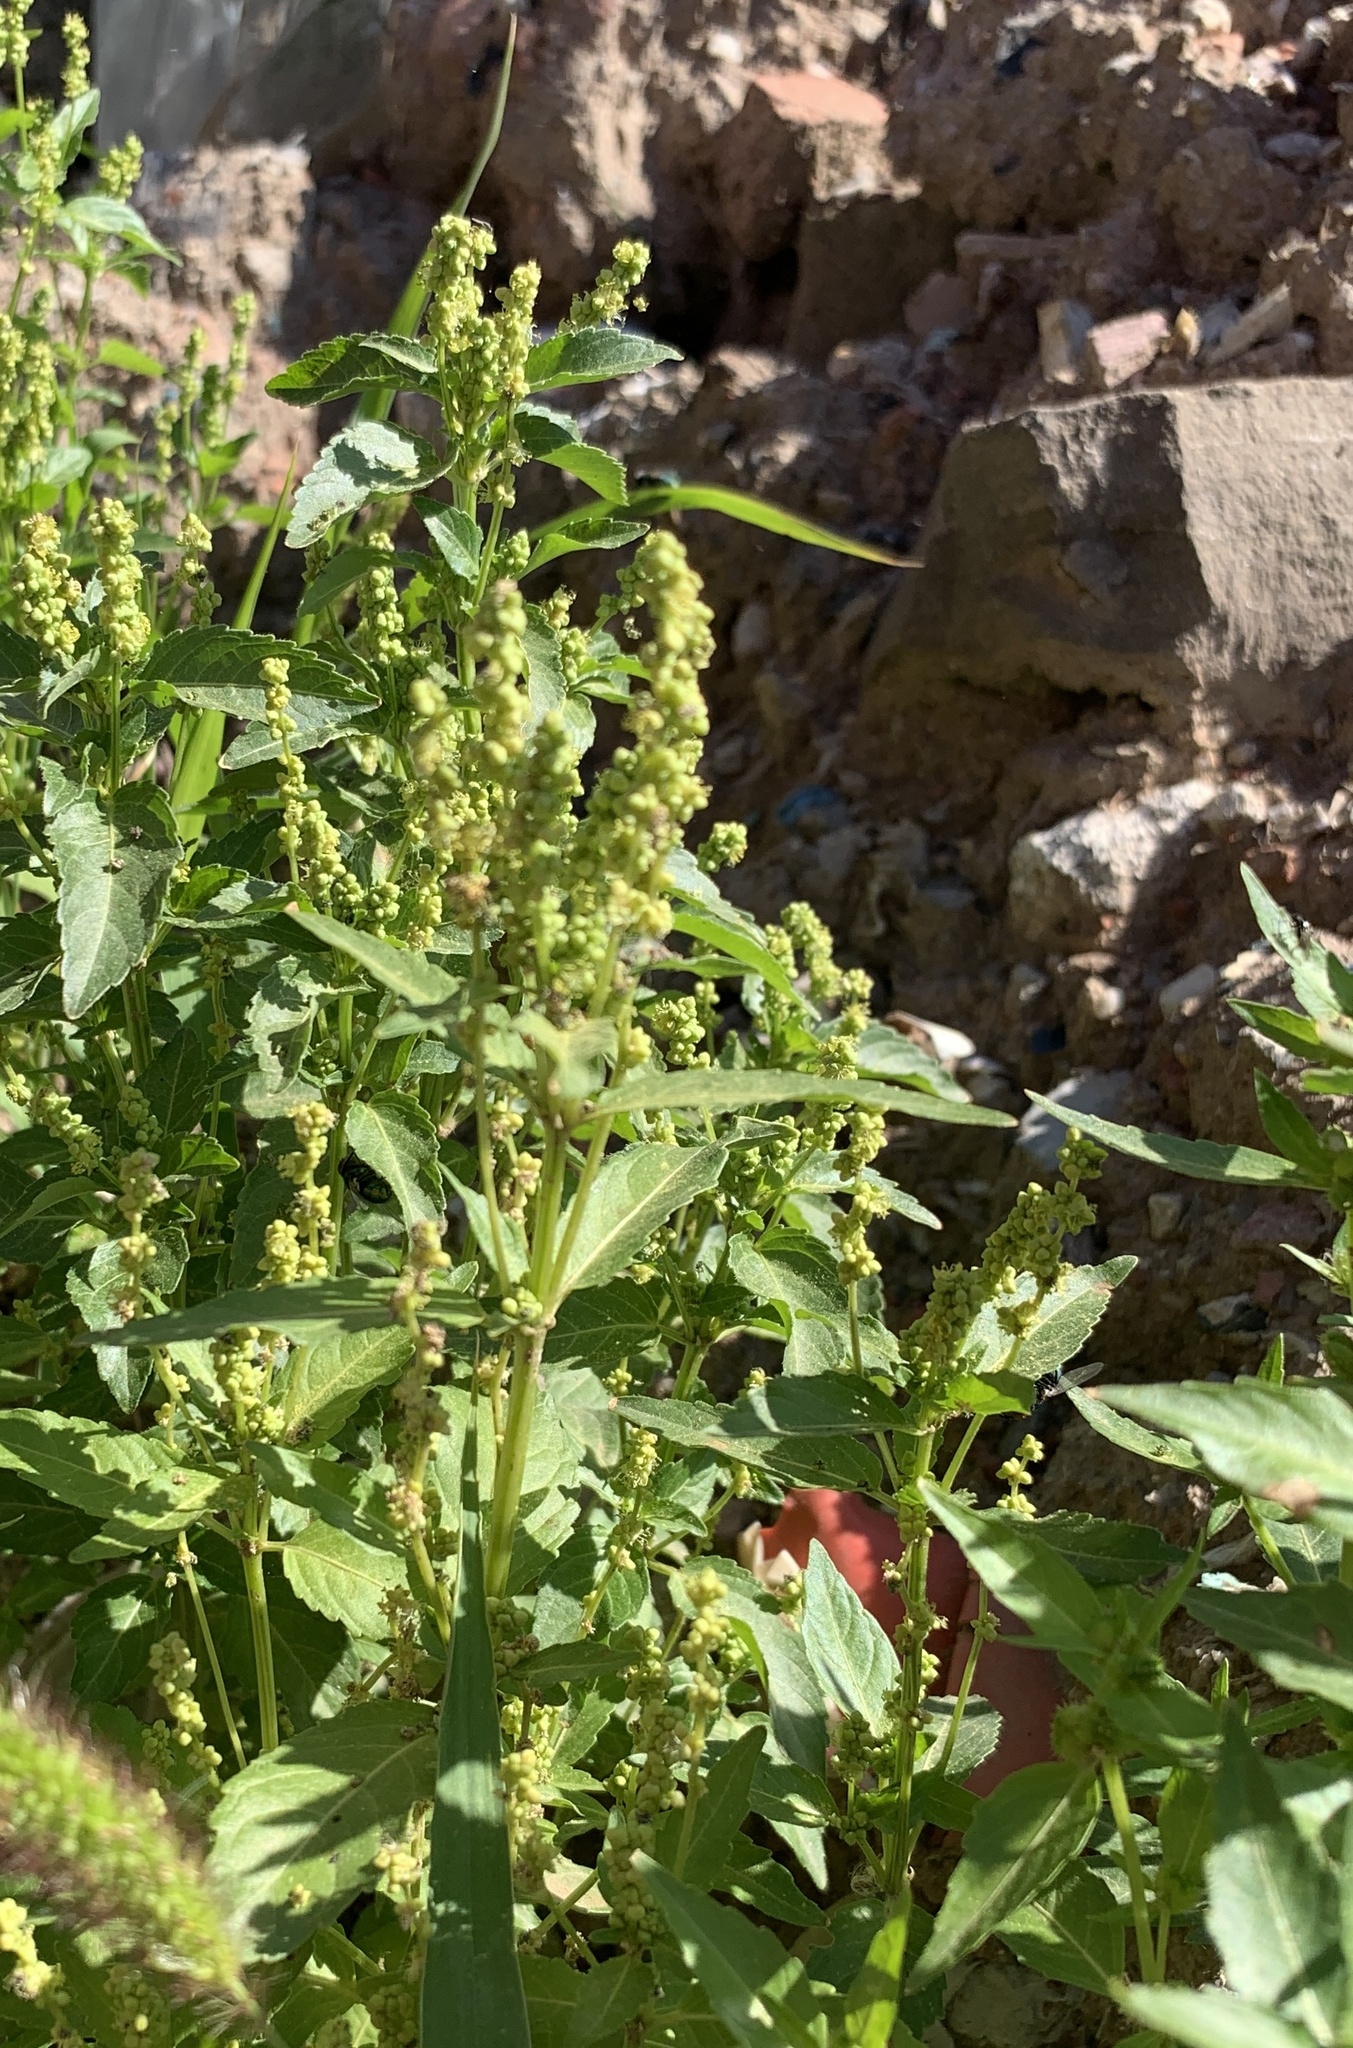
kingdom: Plantae
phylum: Tracheophyta
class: Magnoliopsida
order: Malpighiales
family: Euphorbiaceae
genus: Mercurialis
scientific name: Mercurialis annua
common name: Annual mercury
